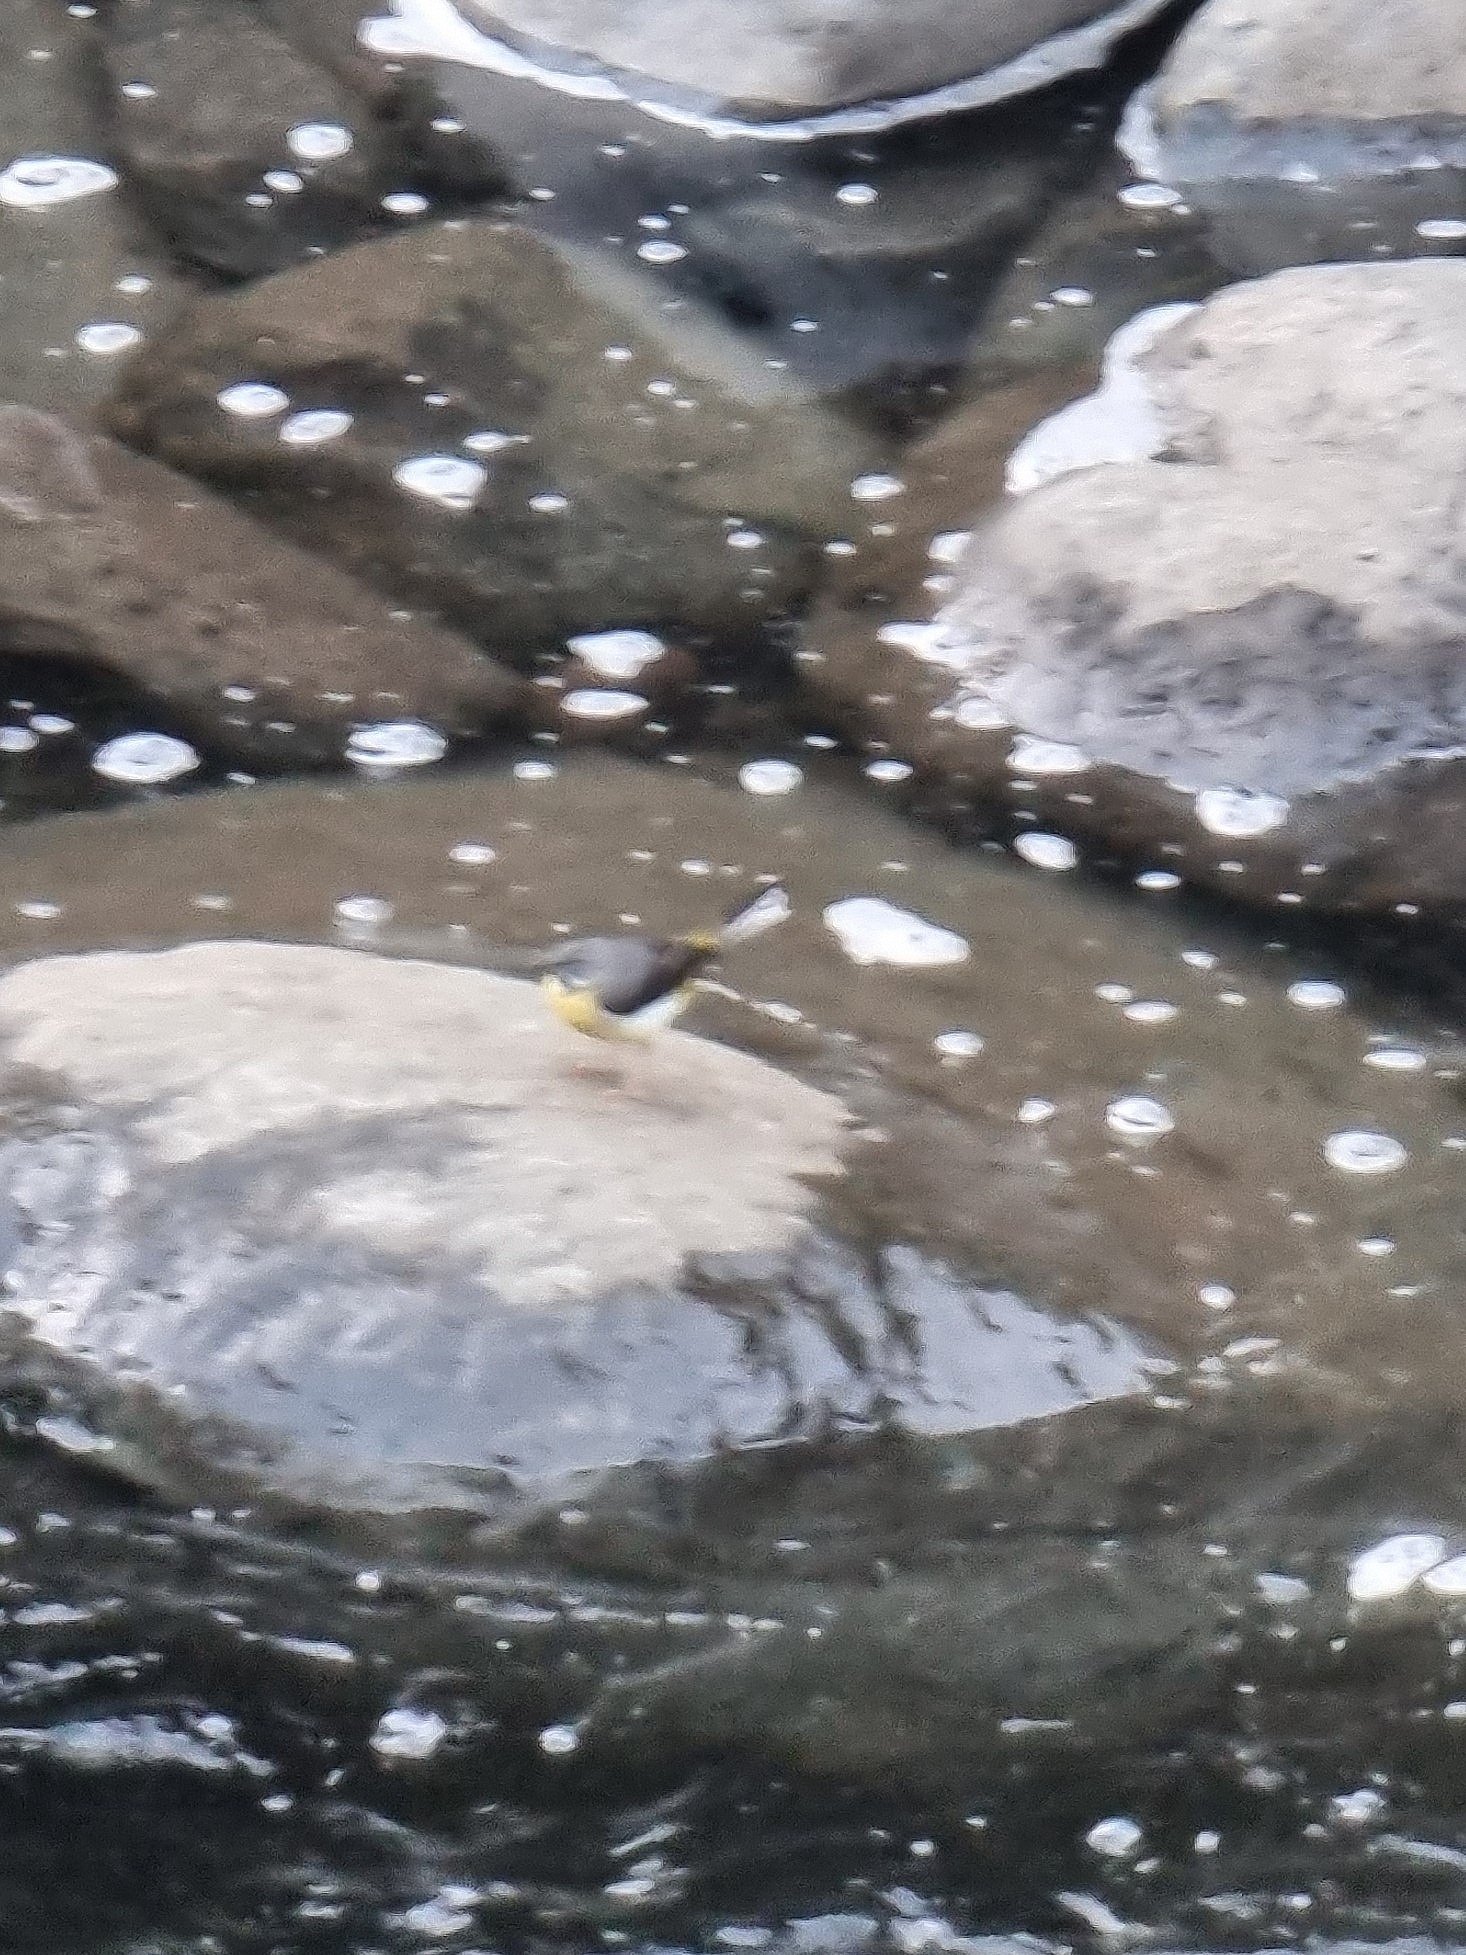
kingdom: Animalia
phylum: Chordata
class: Aves
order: Passeriformes
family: Motacillidae
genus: Motacilla
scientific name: Motacilla cinerea
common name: Grey wagtail
